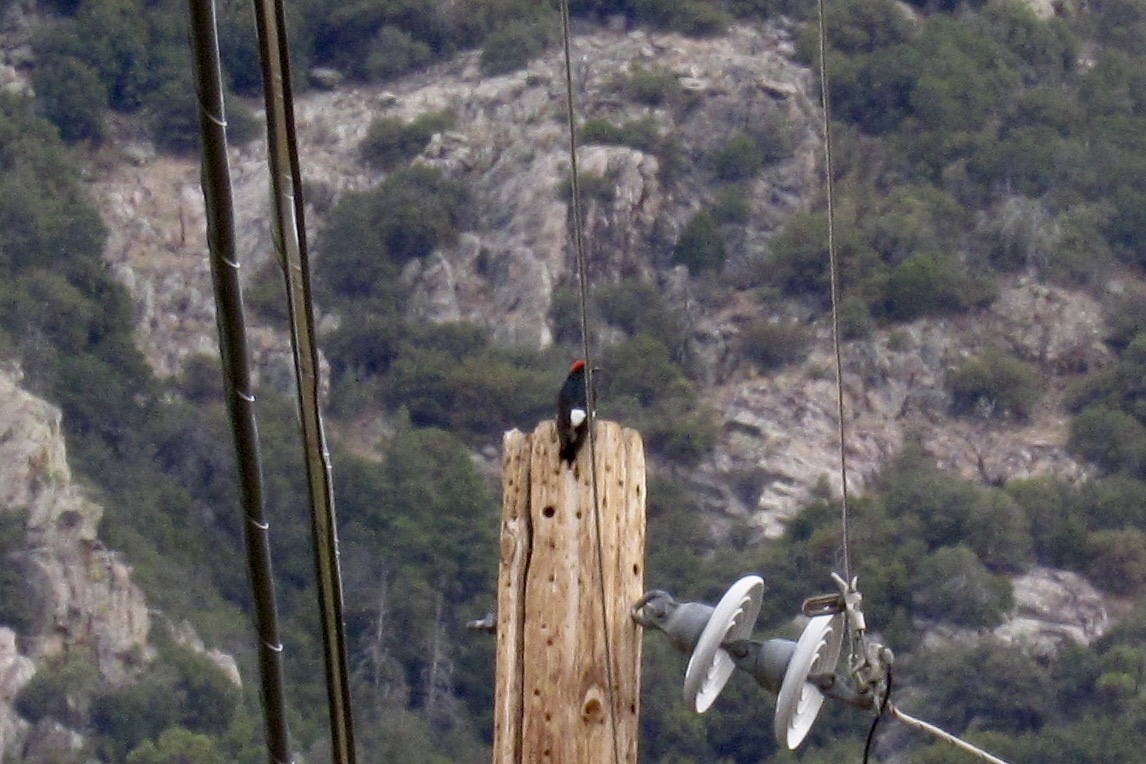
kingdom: Animalia
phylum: Chordata
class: Aves
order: Piciformes
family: Picidae
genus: Melanerpes
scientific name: Melanerpes formicivorus
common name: Acorn woodpecker
